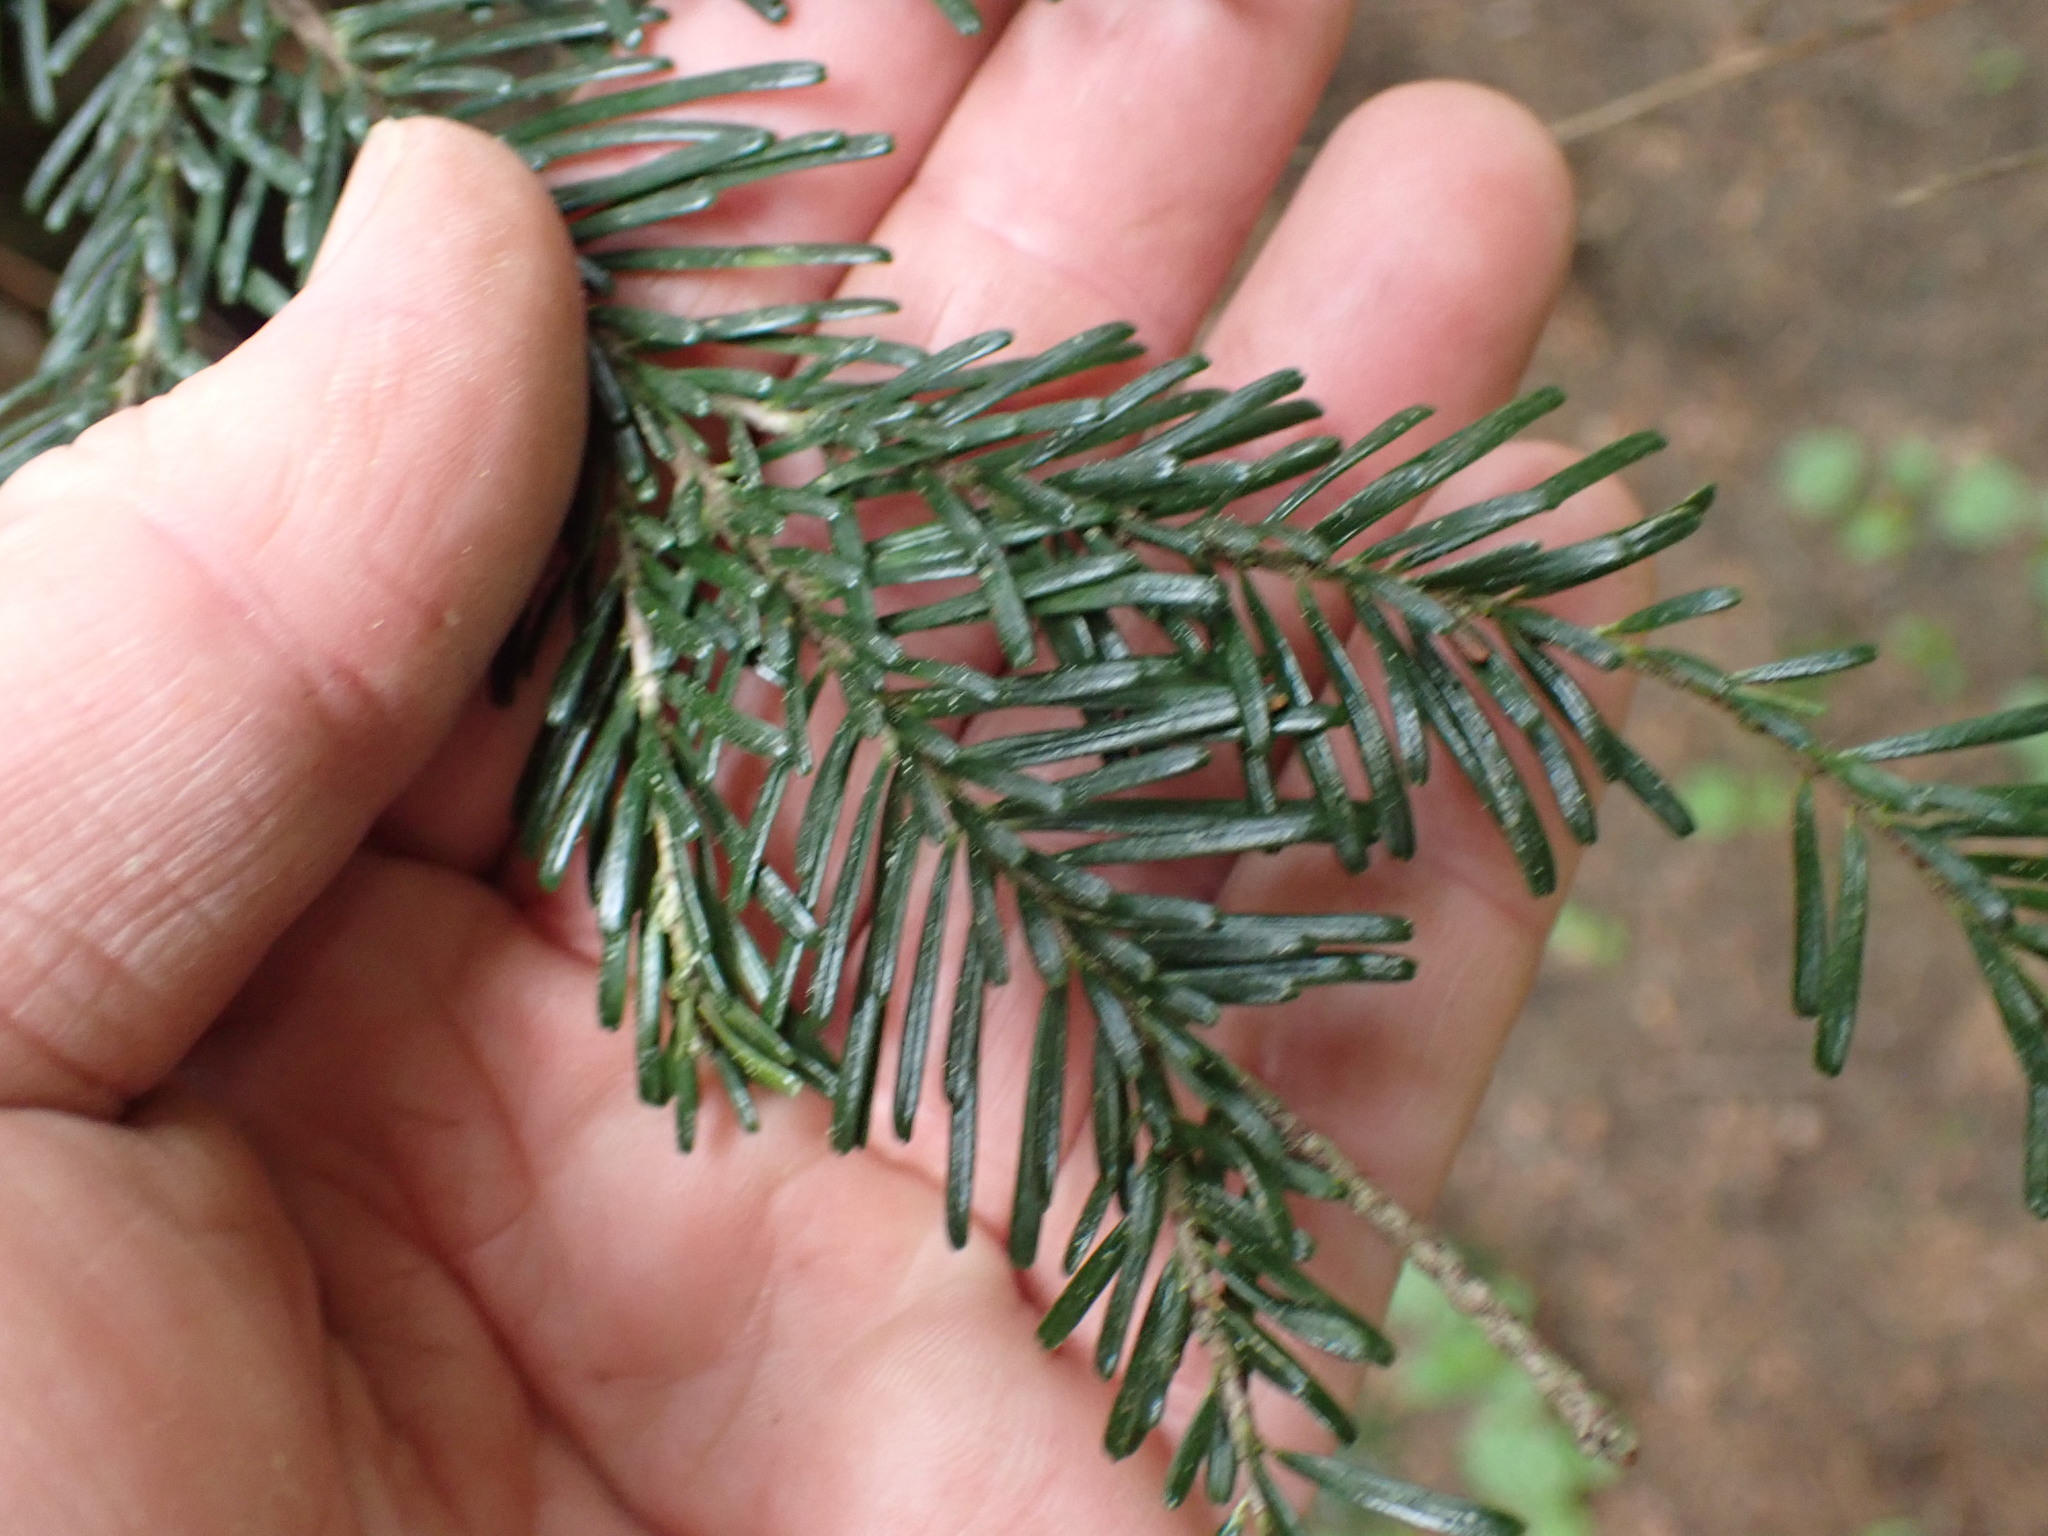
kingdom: Plantae
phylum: Tracheophyta
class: Pinopsida
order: Pinales
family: Pinaceae
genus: Abies
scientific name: Abies amabilis
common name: Pacific silver fir
